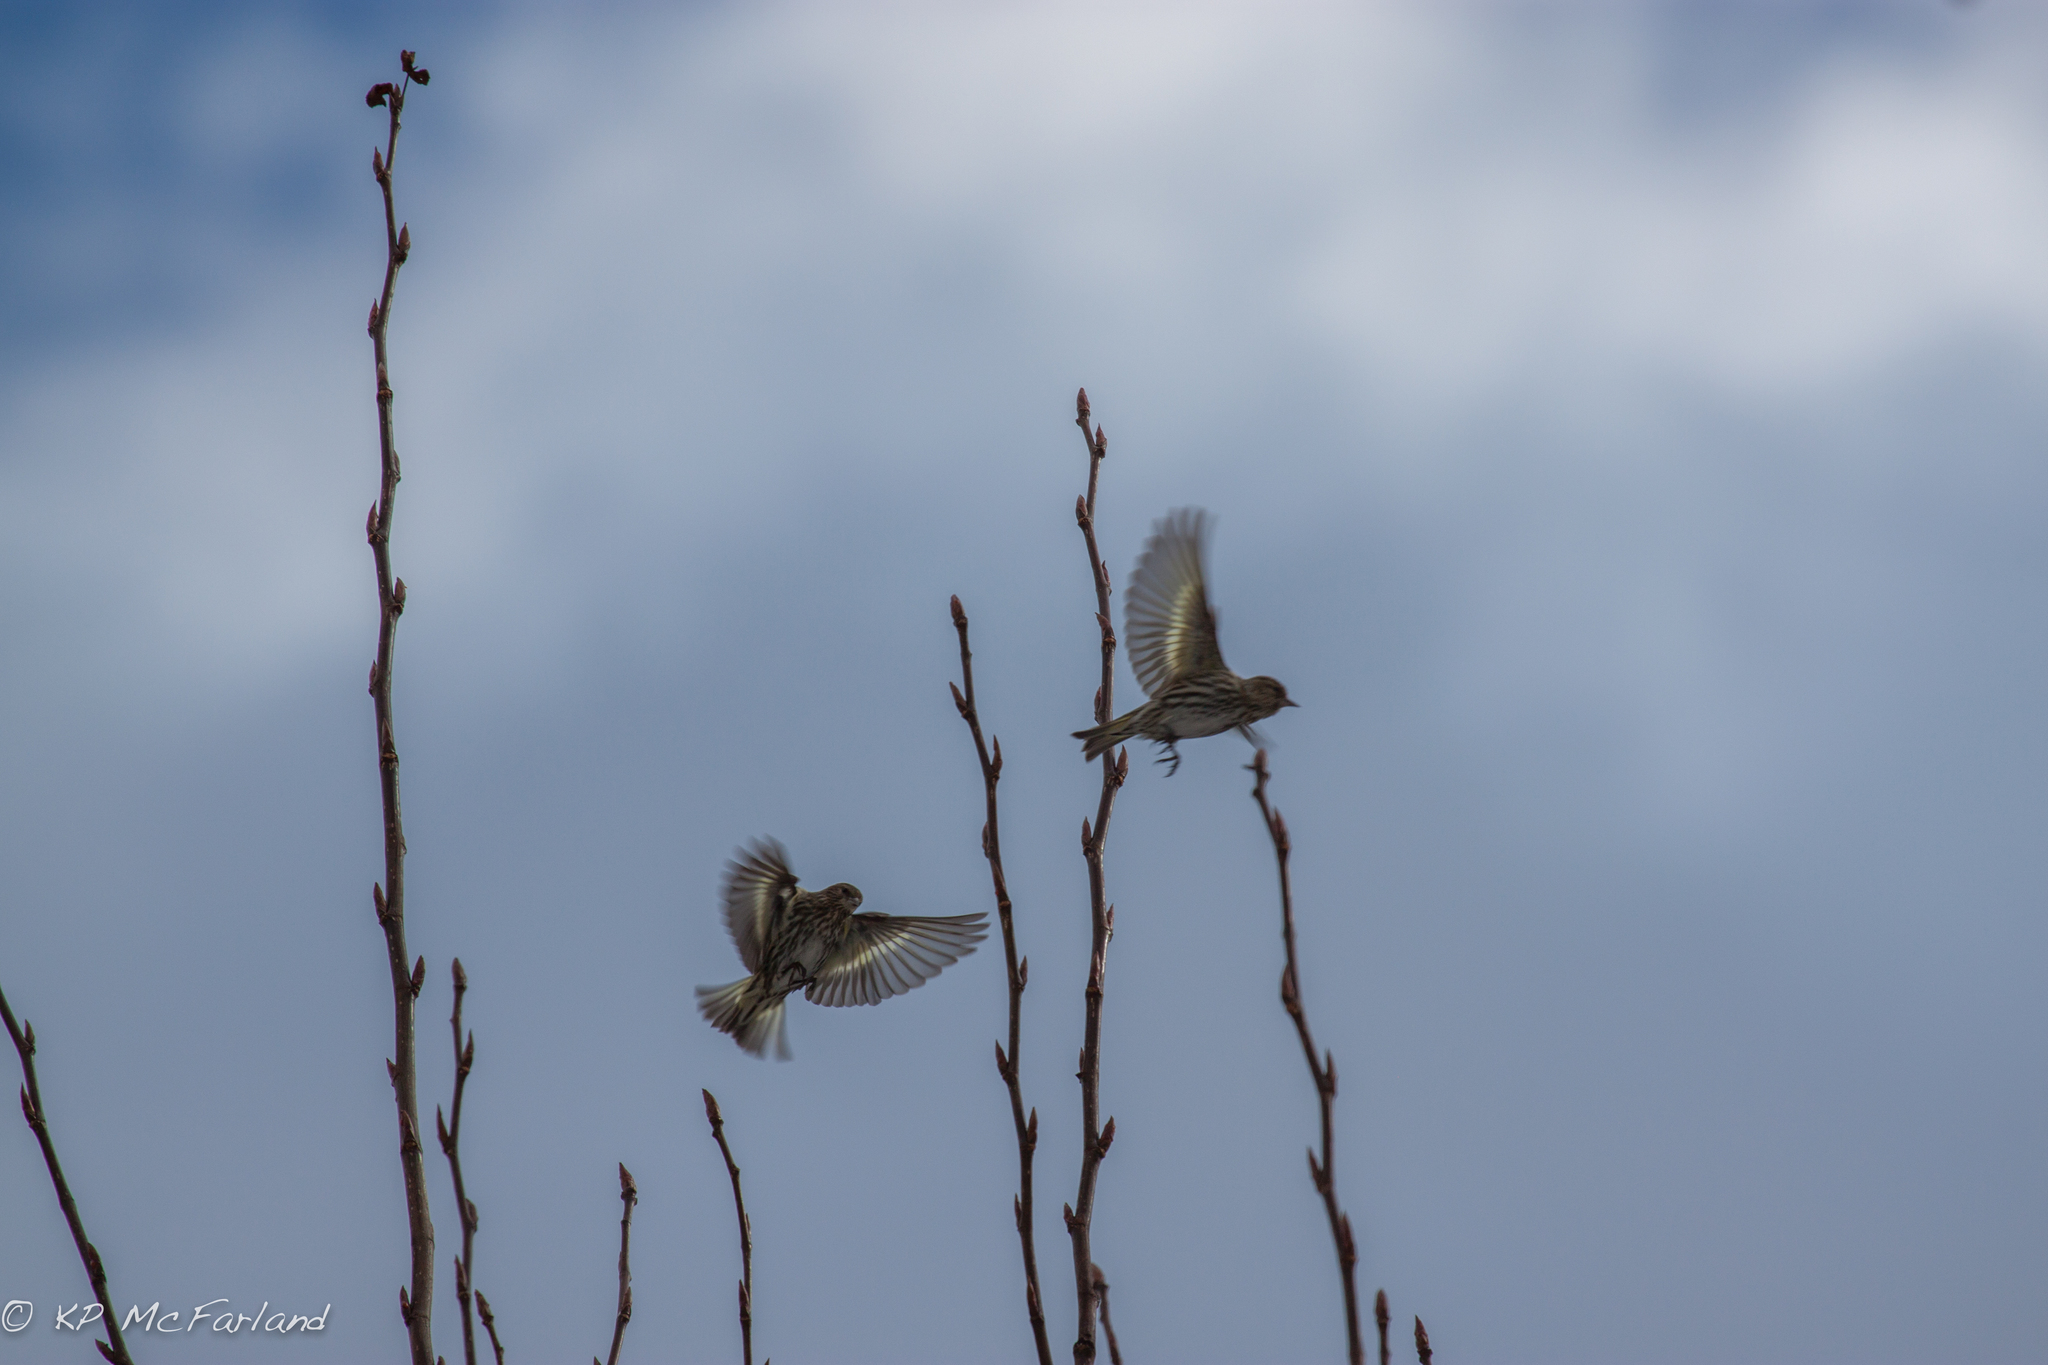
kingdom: Animalia
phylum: Chordata
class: Aves
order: Passeriformes
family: Fringillidae
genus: Spinus
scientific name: Spinus pinus
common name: Pine siskin
